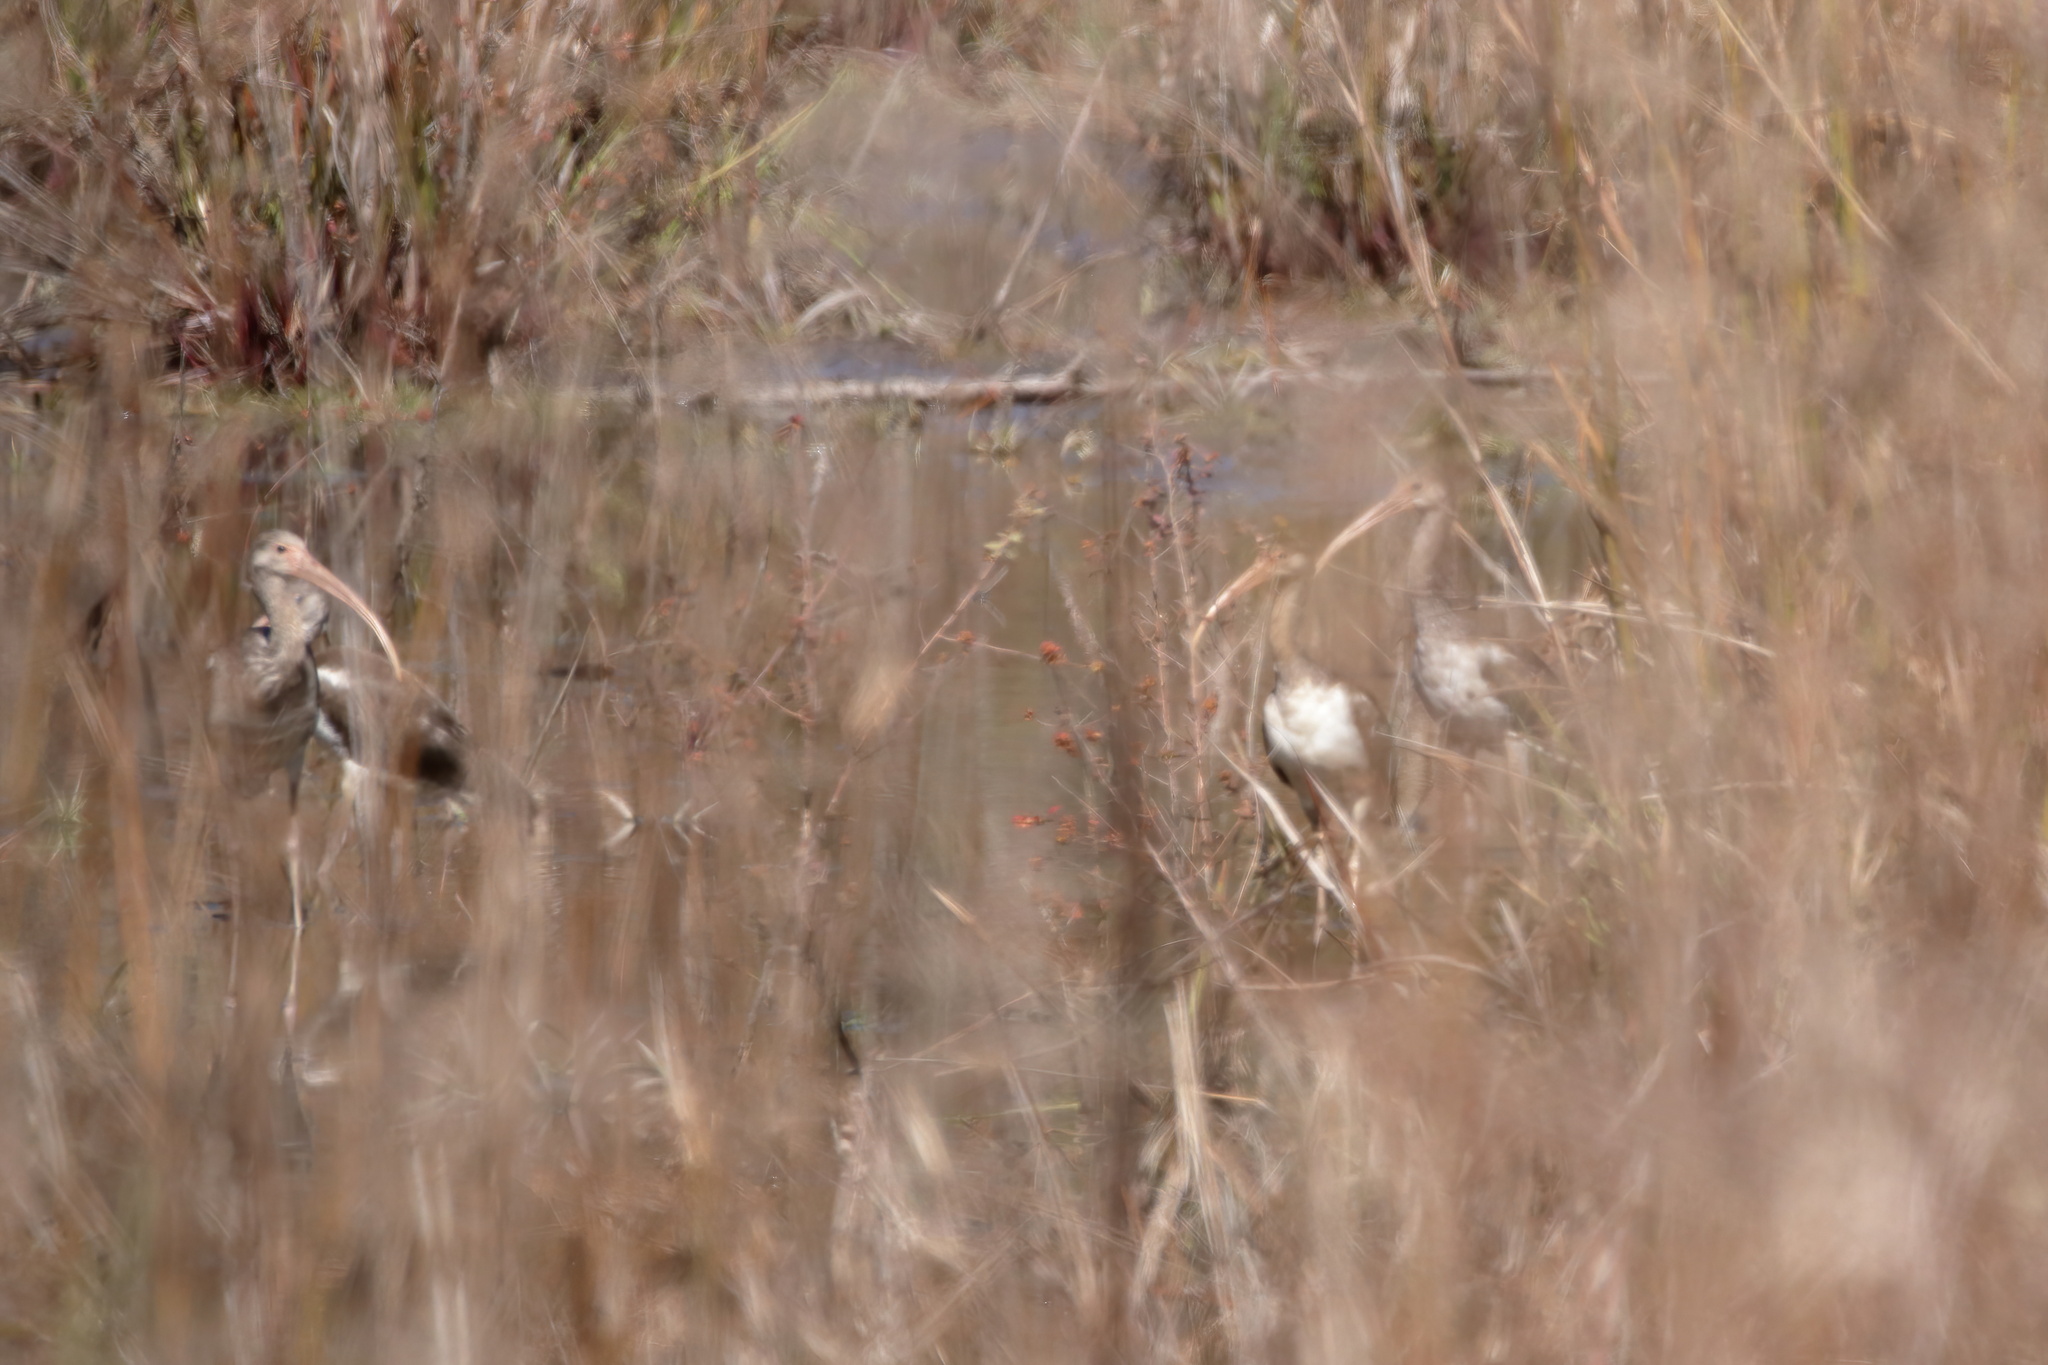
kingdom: Animalia
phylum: Chordata
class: Aves
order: Pelecaniformes
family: Threskiornithidae
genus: Eudocimus
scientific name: Eudocimus albus
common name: White ibis
